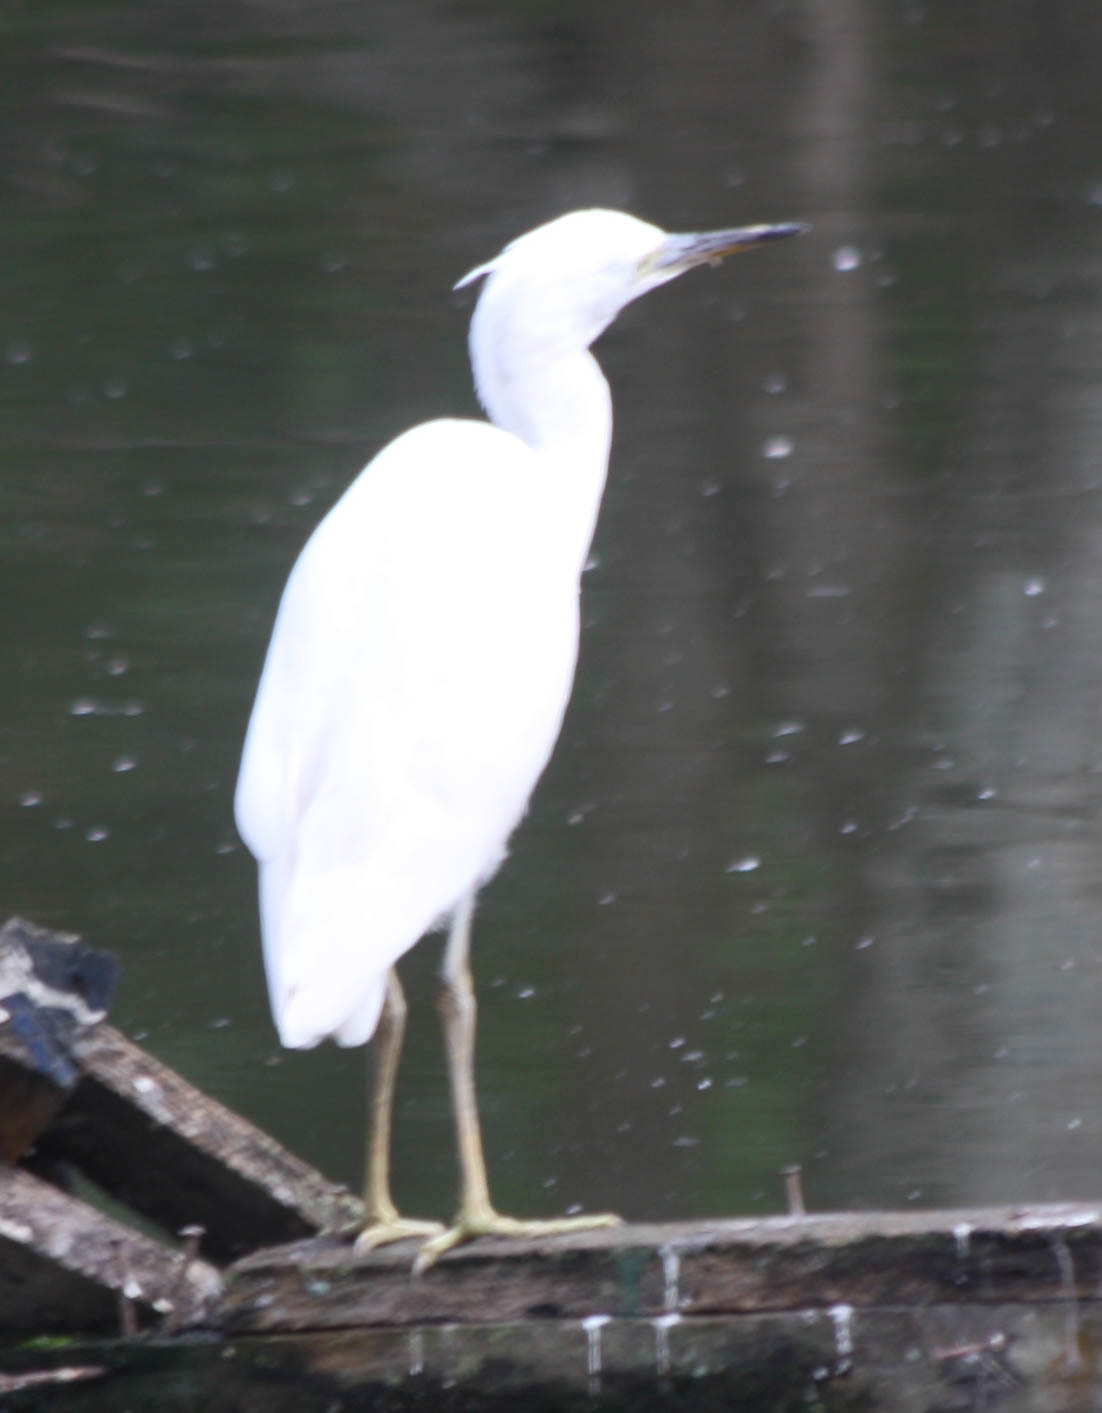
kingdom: Animalia
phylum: Chordata
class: Aves
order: Pelecaniformes
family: Ardeidae
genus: Egretta
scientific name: Egretta dimorpha
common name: Dimorphic egret
